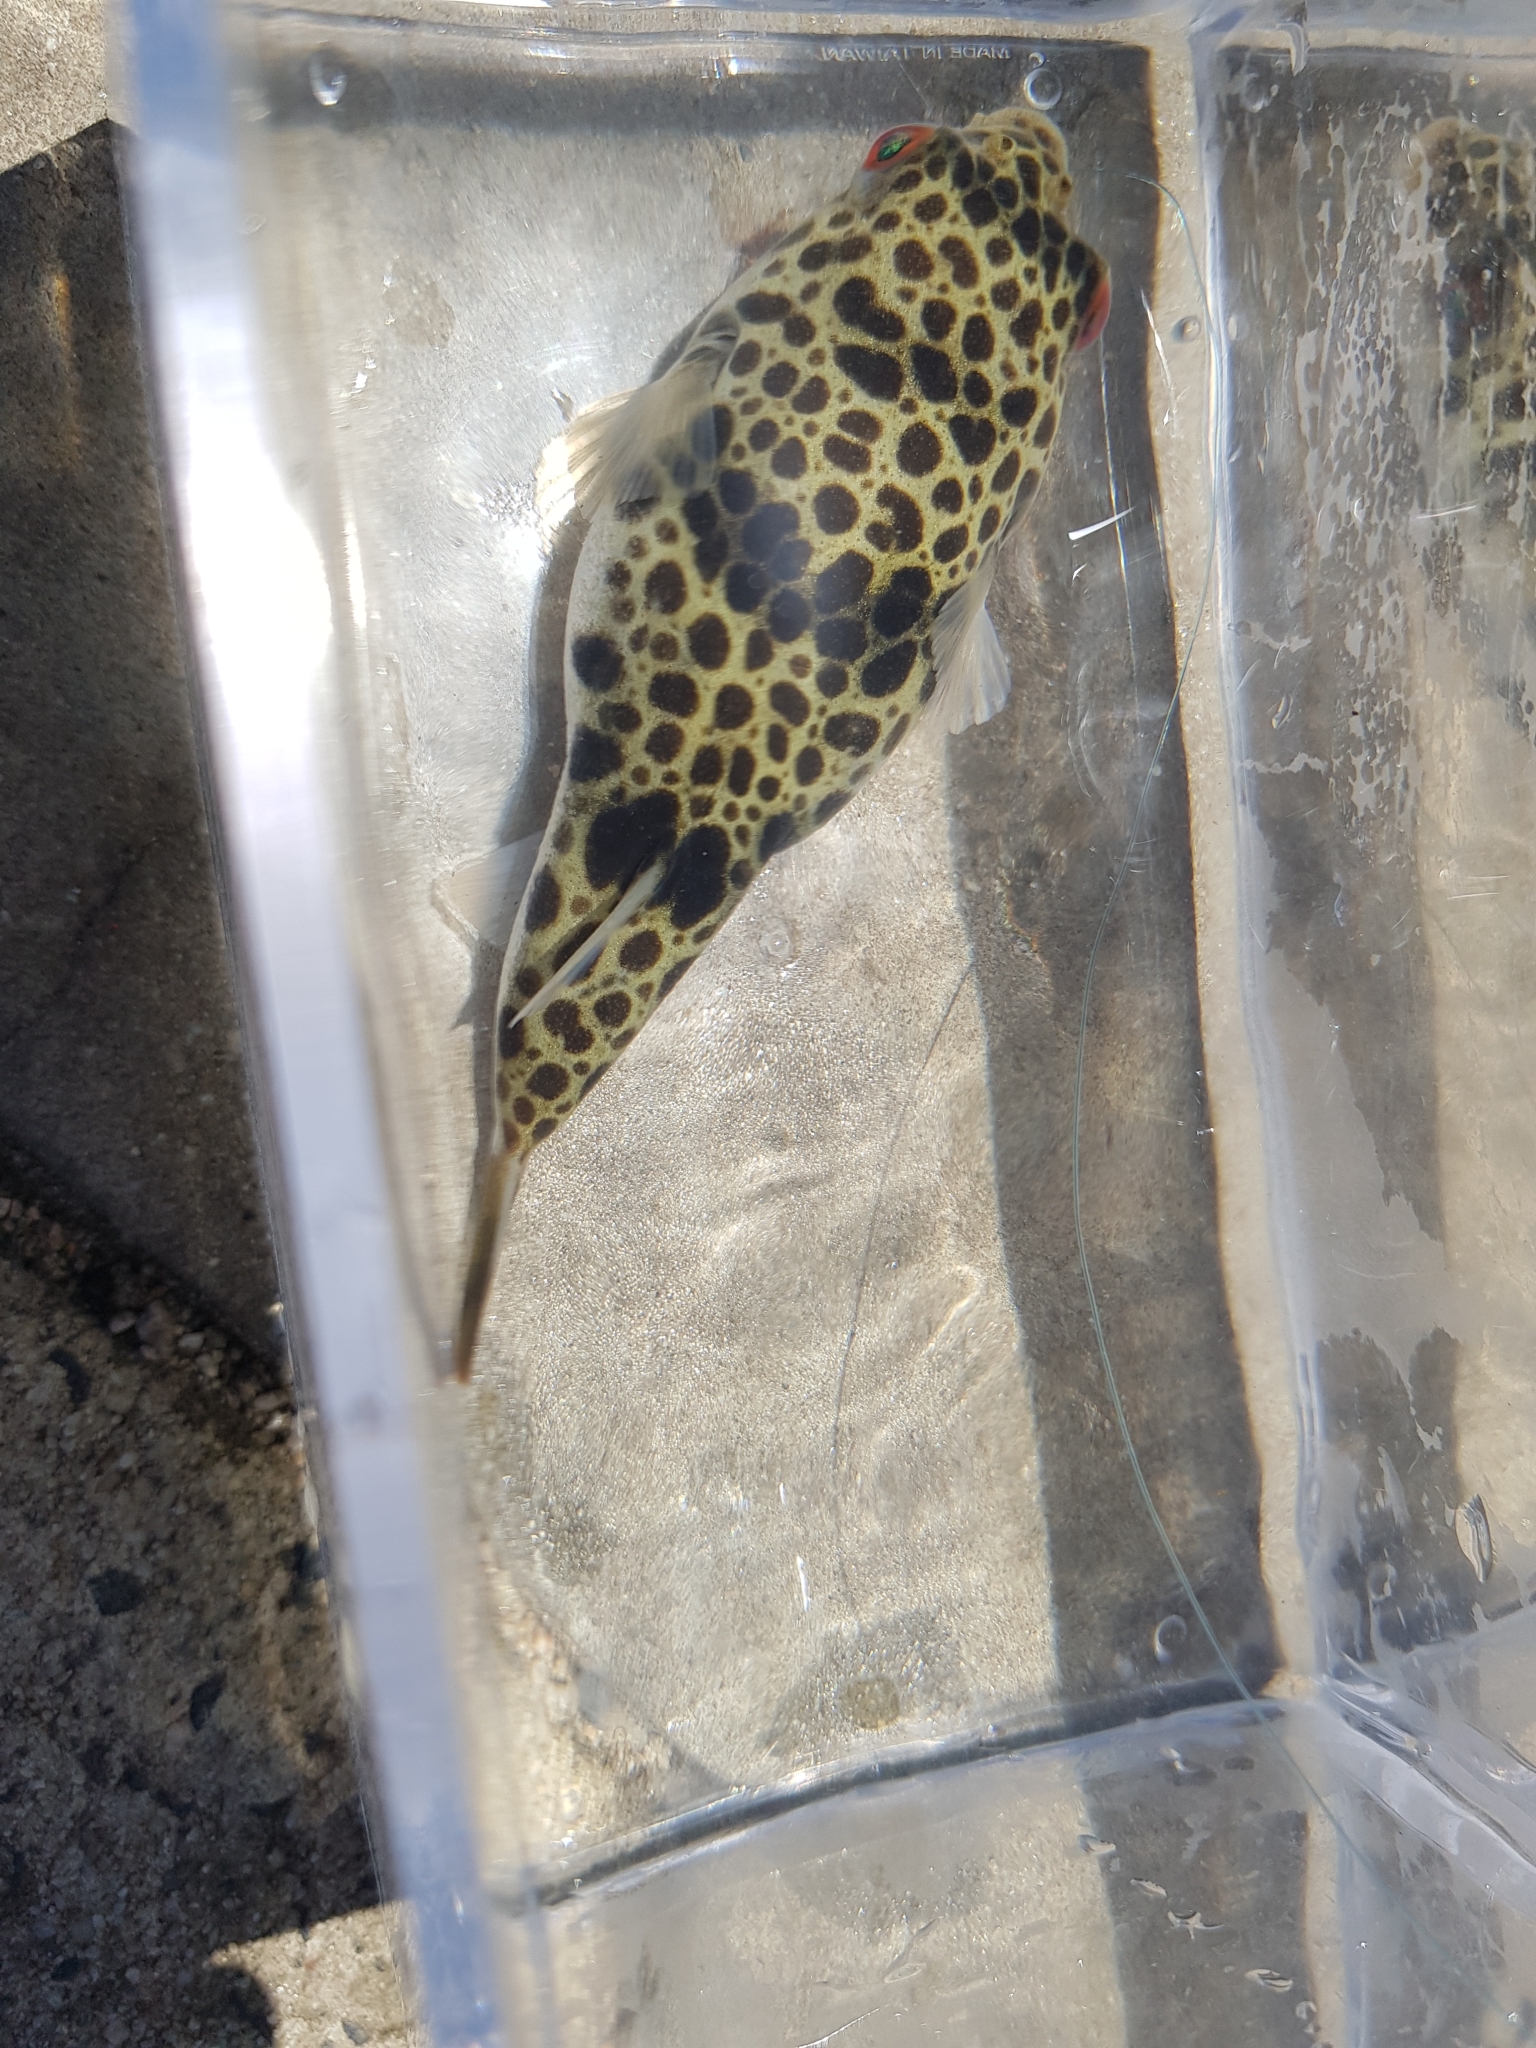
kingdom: Animalia
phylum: Chordata
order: Tetraodontiformes
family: Tetraodontidae
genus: Tetractenos
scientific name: Tetractenos glaber
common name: Smooth toadfish
